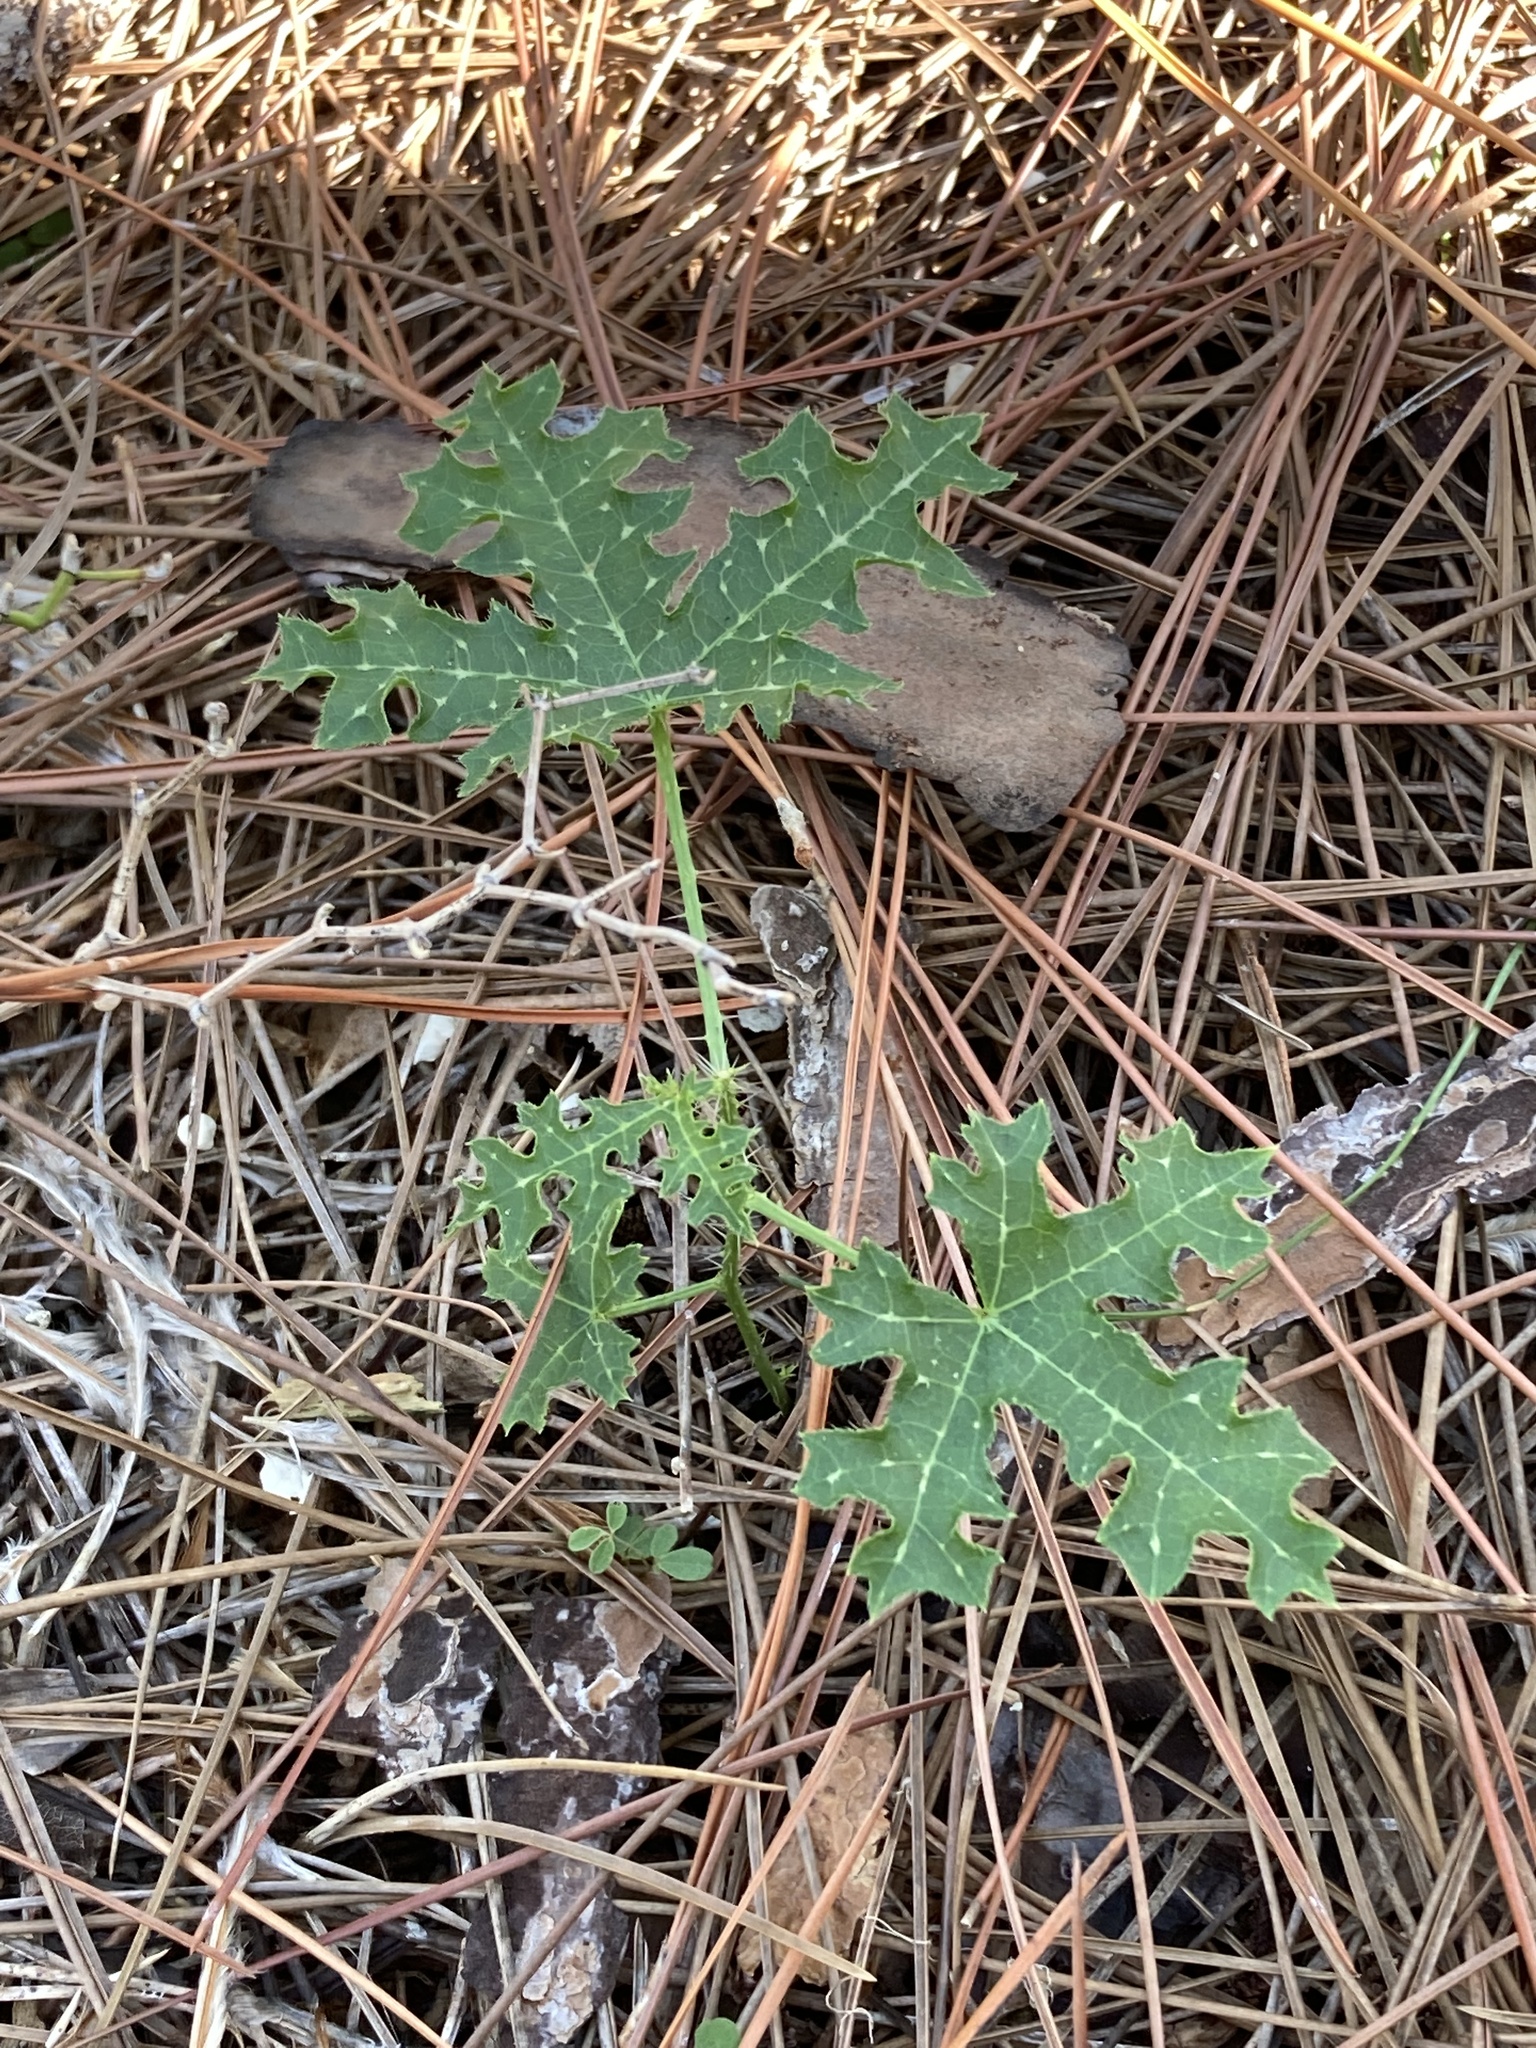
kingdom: Plantae
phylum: Tracheophyta
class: Magnoliopsida
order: Malpighiales
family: Euphorbiaceae
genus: Cnidoscolus
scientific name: Cnidoscolus stimulosus
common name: Bull-nettle
